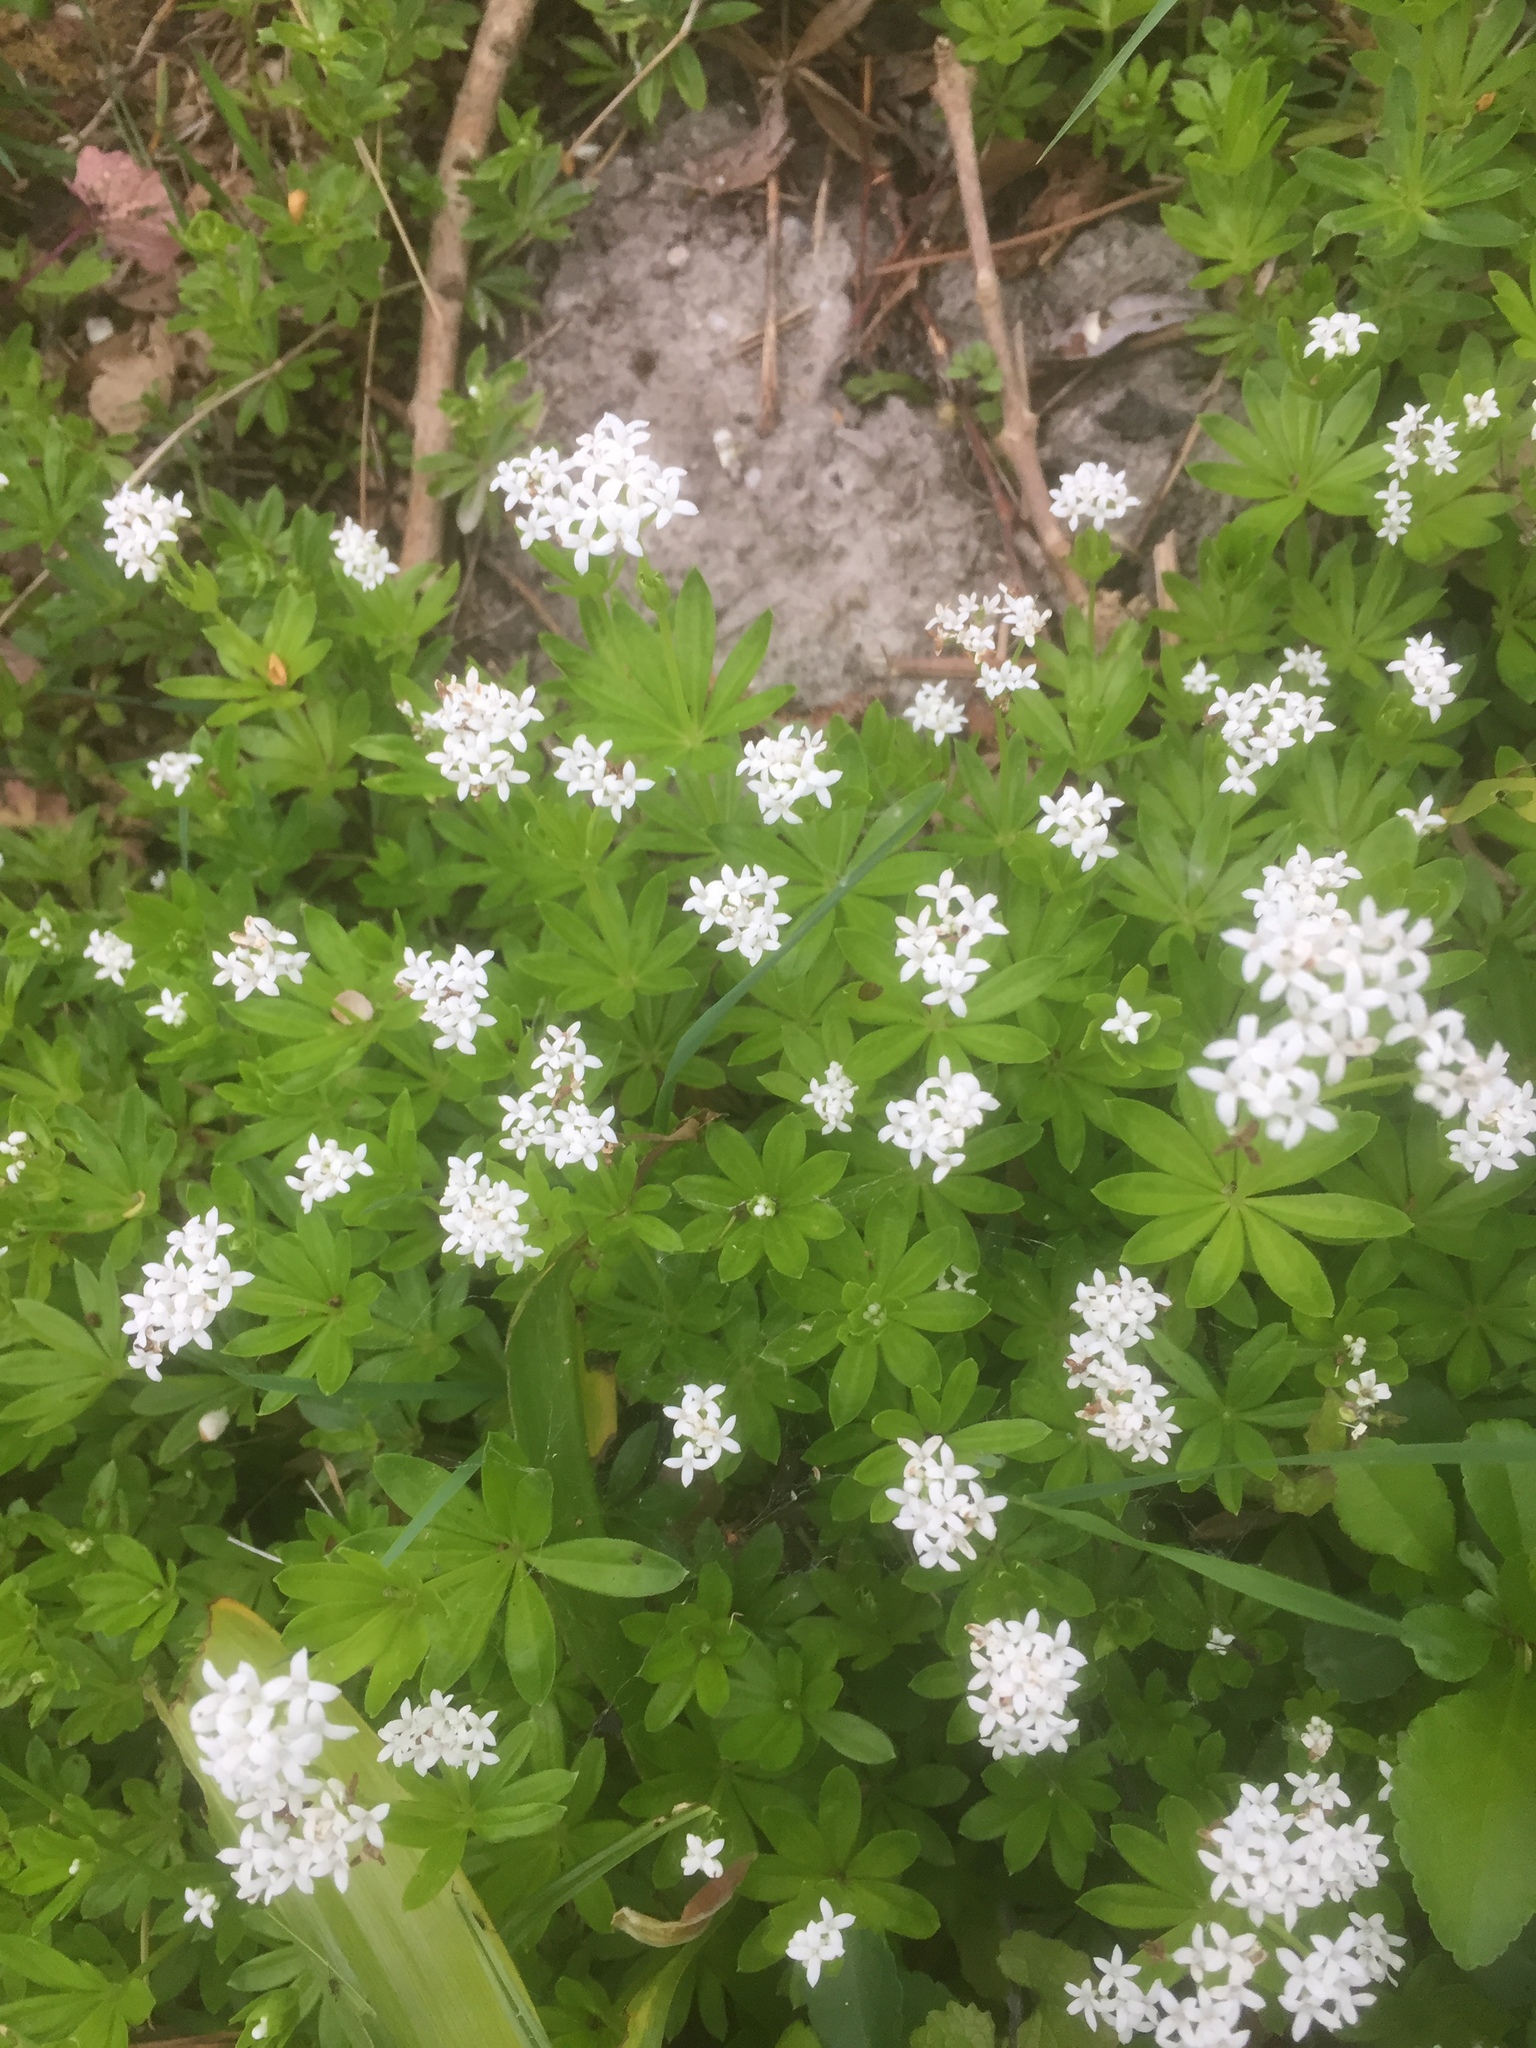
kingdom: Plantae
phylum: Tracheophyta
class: Magnoliopsida
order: Gentianales
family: Rubiaceae
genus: Galium
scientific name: Galium odoratum
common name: Sweet woodruff
